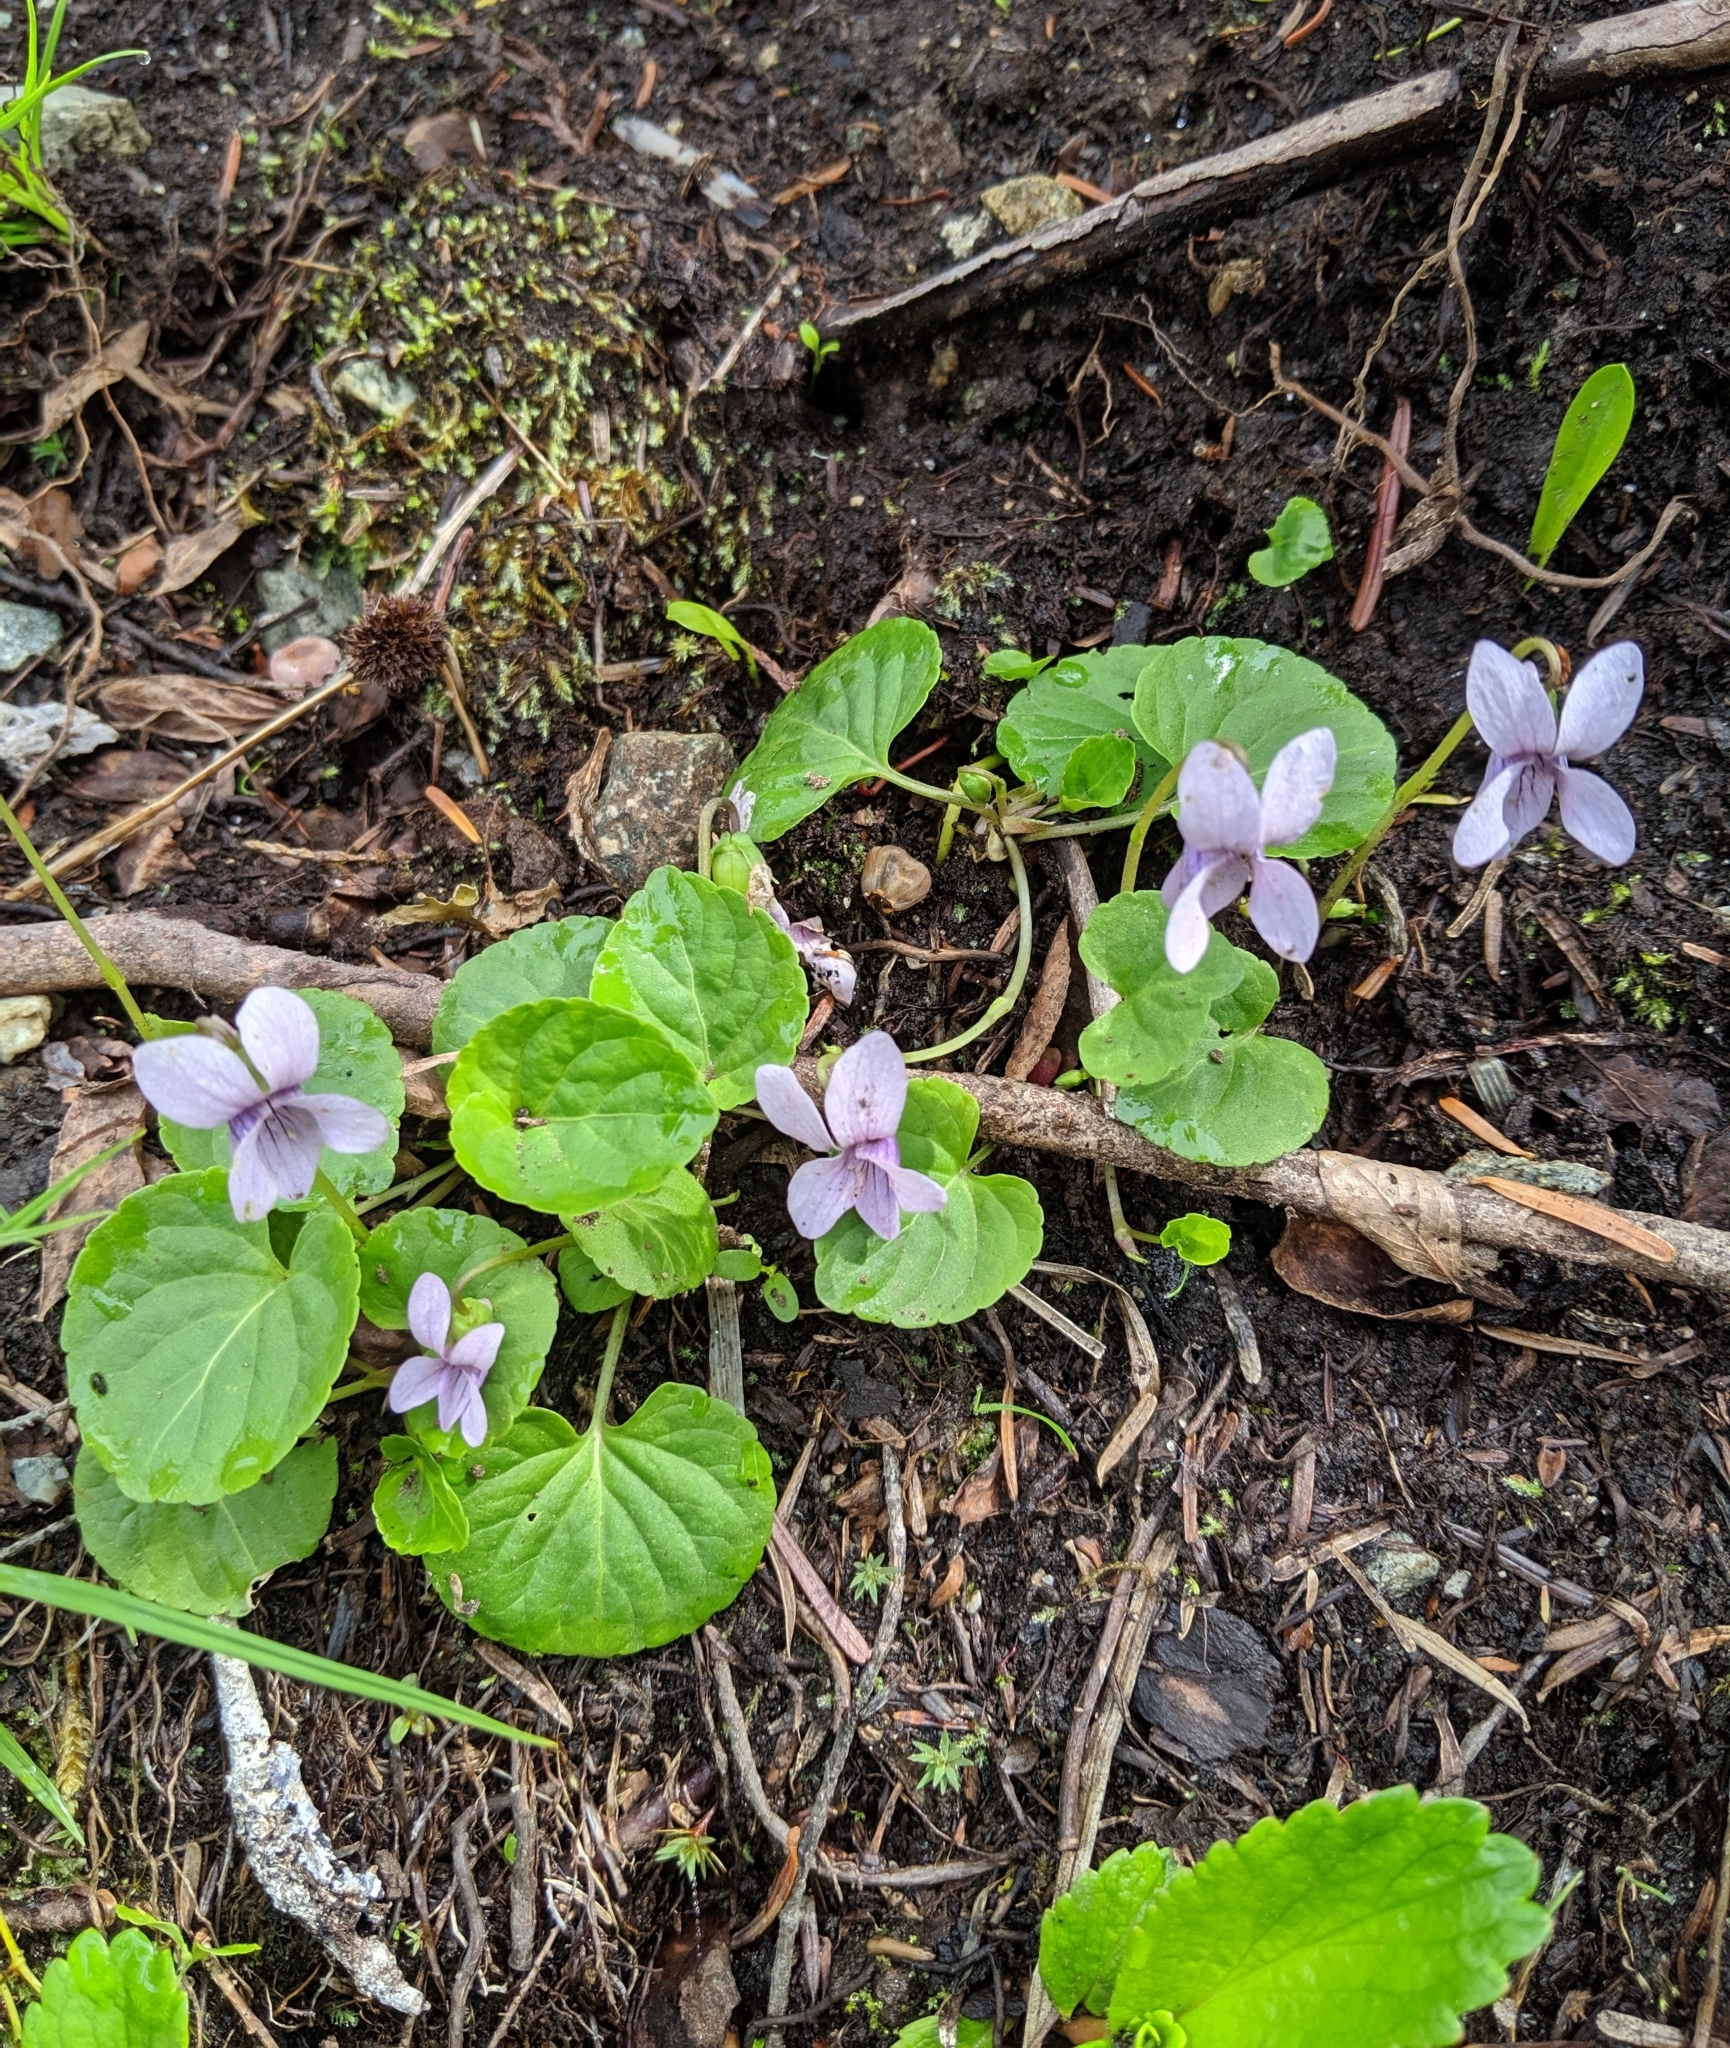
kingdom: Plantae
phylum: Tracheophyta
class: Magnoliopsida
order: Malpighiales
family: Violaceae
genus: Viola
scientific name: Viola palustris
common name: Marsh violet
